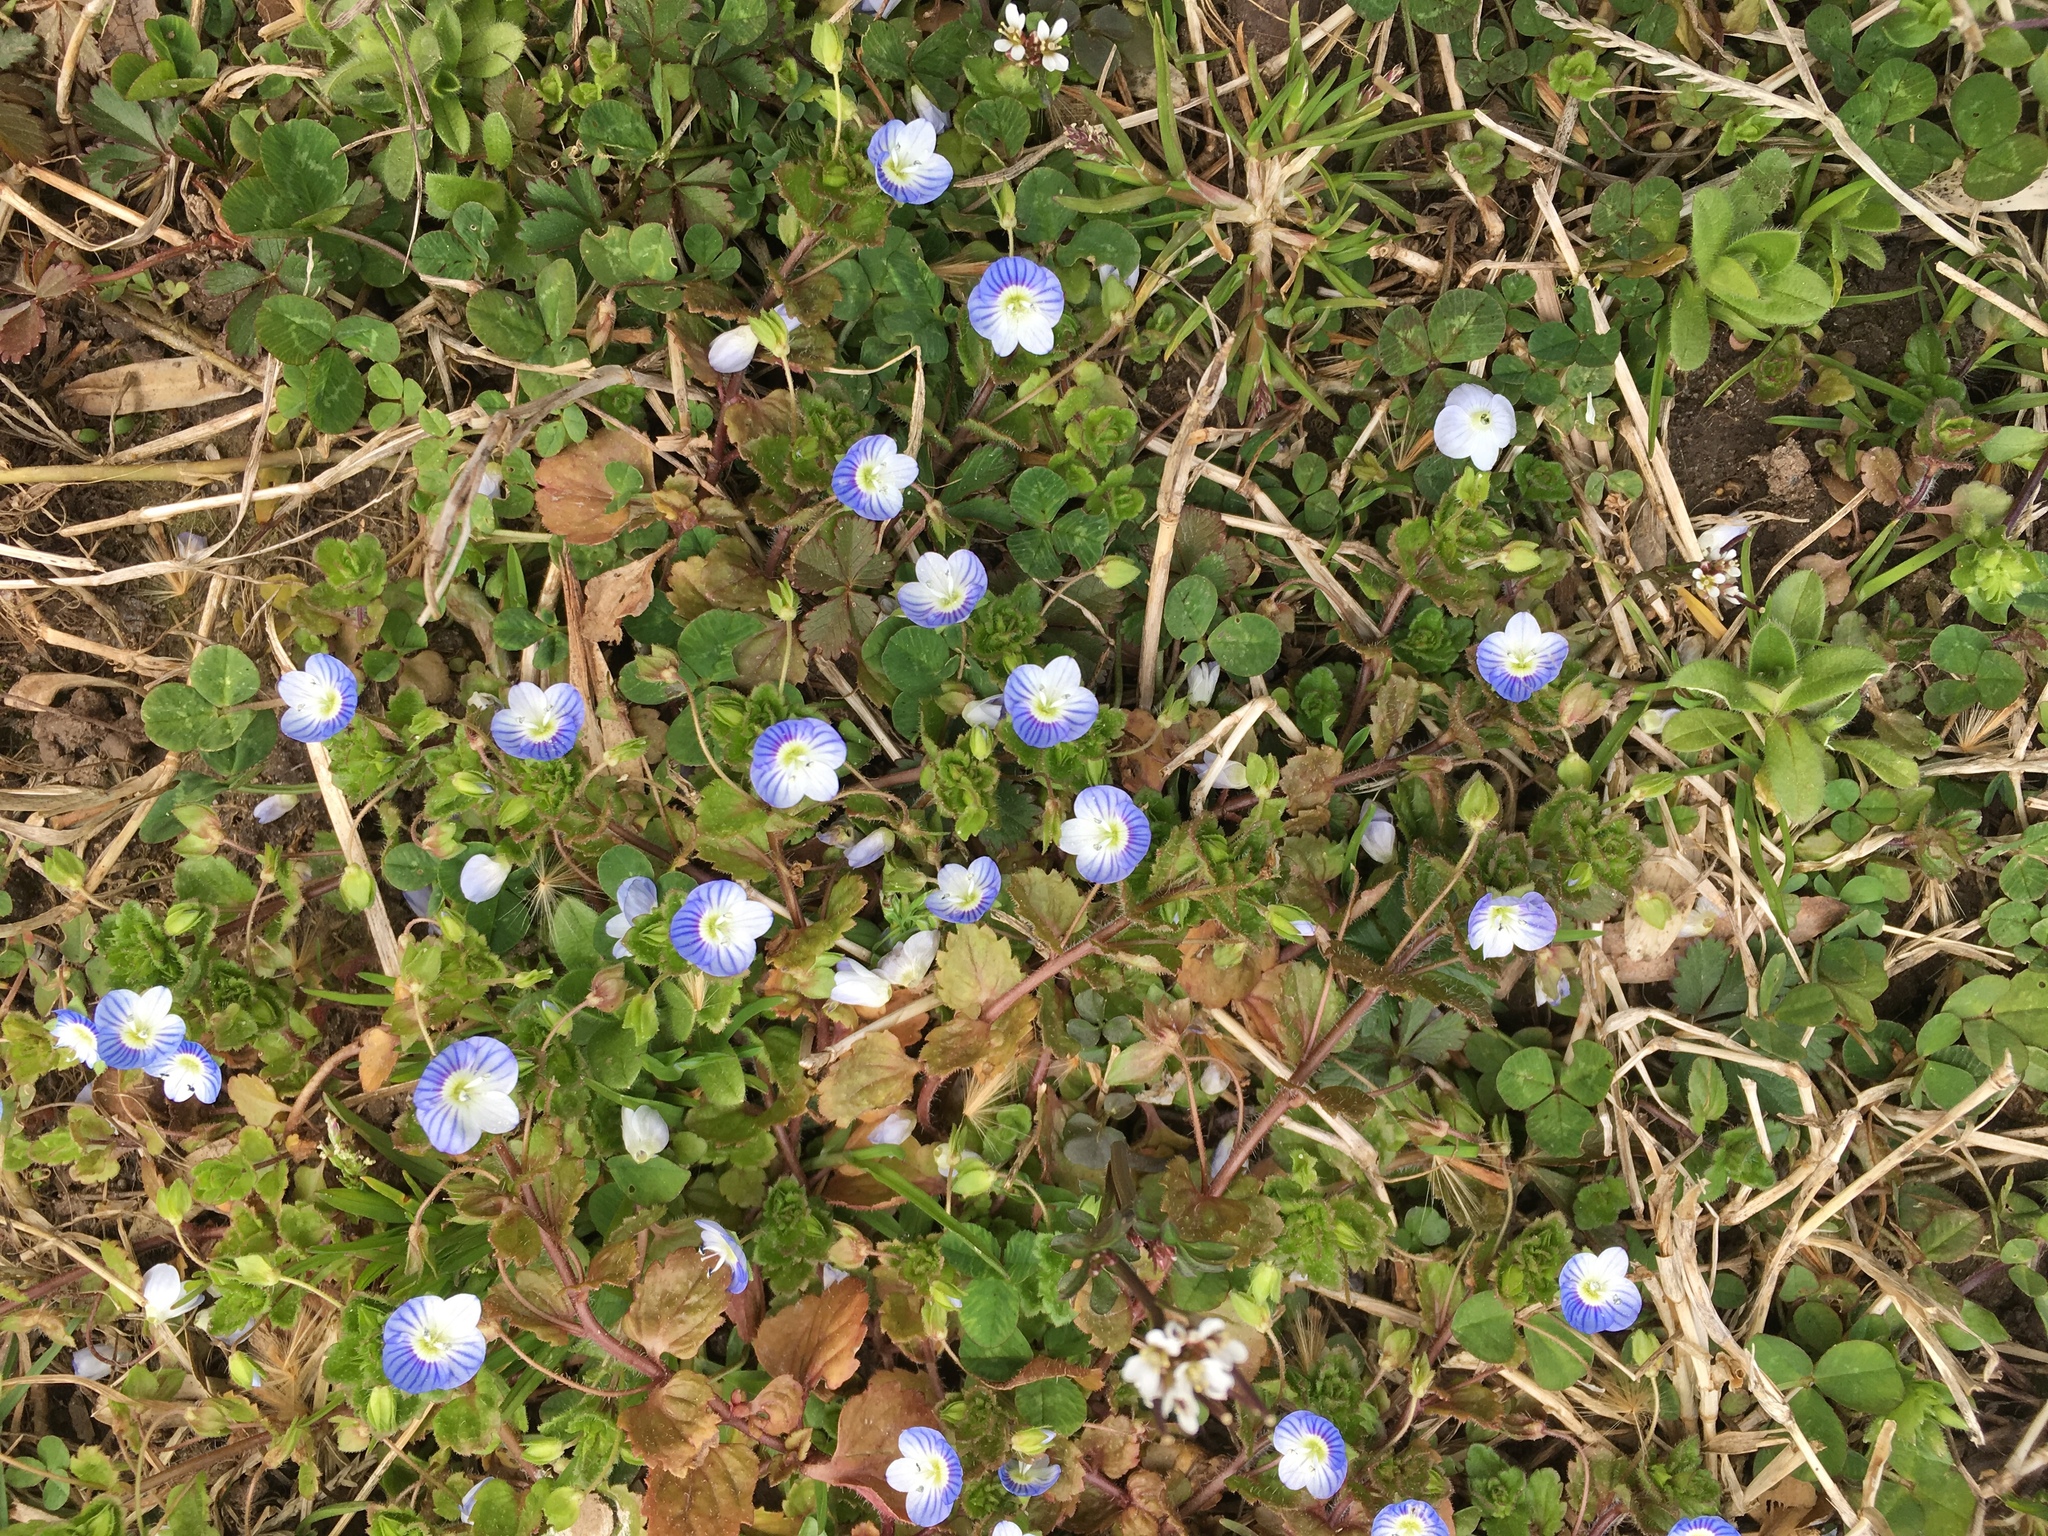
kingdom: Plantae
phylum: Tracheophyta
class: Magnoliopsida
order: Lamiales
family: Plantaginaceae
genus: Veronica
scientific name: Veronica persica
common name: Common field-speedwell
